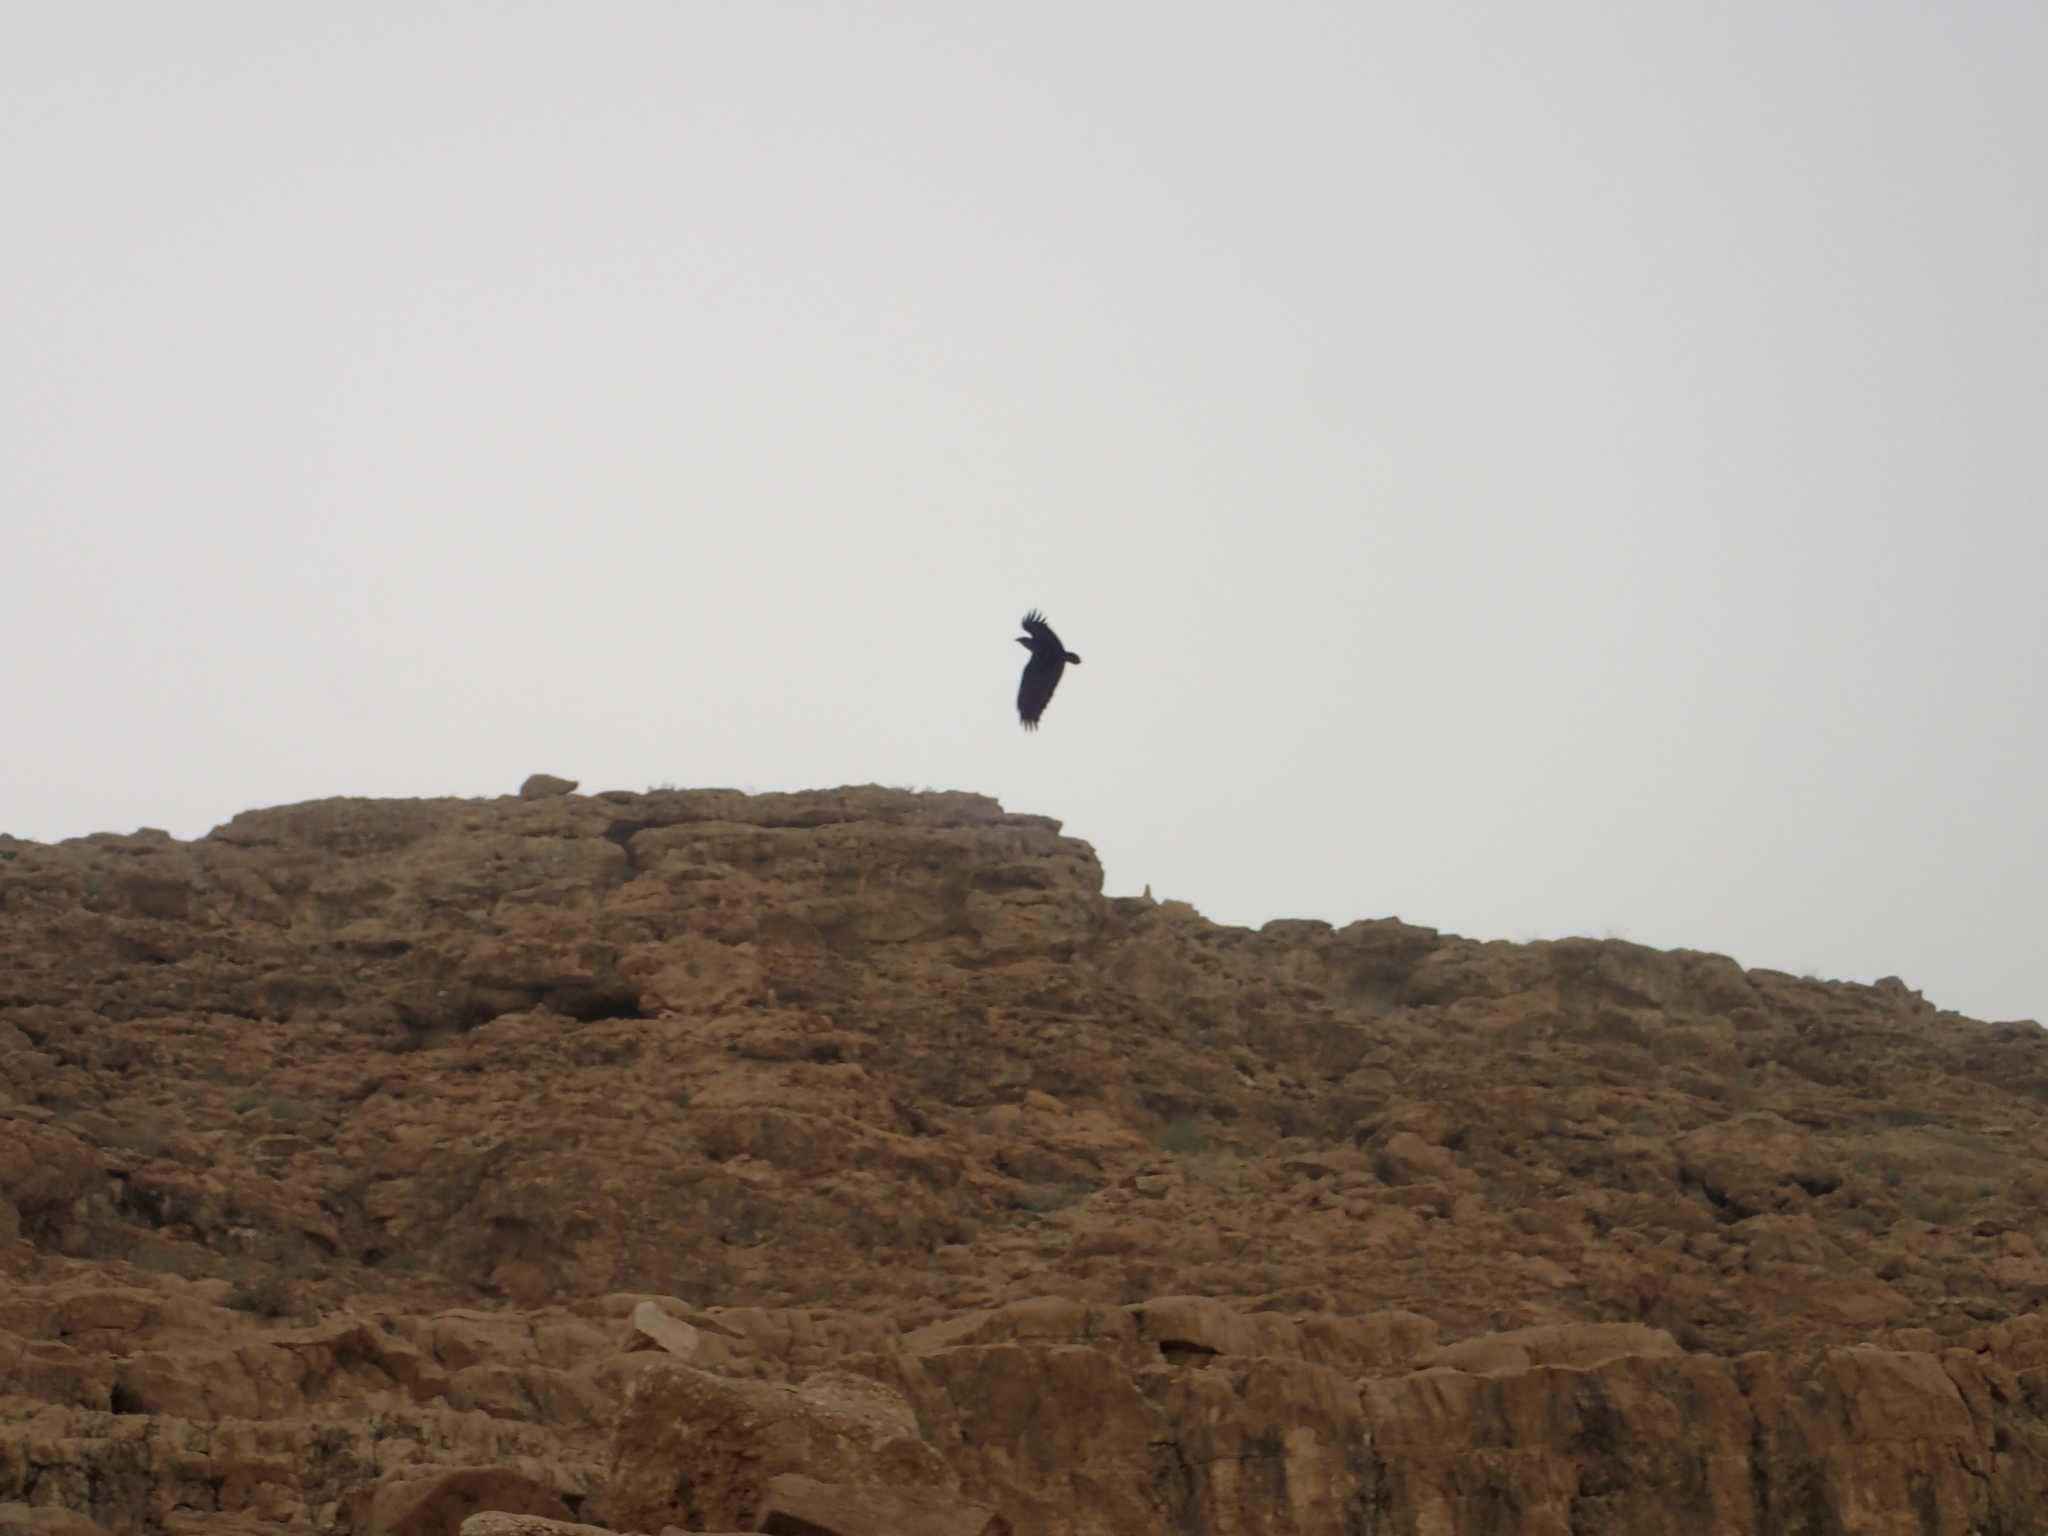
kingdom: Animalia
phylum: Chordata
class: Aves
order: Passeriformes
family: Corvidae
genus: Corvus
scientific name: Corvus rhipidurus
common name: Fan-tailed raven
